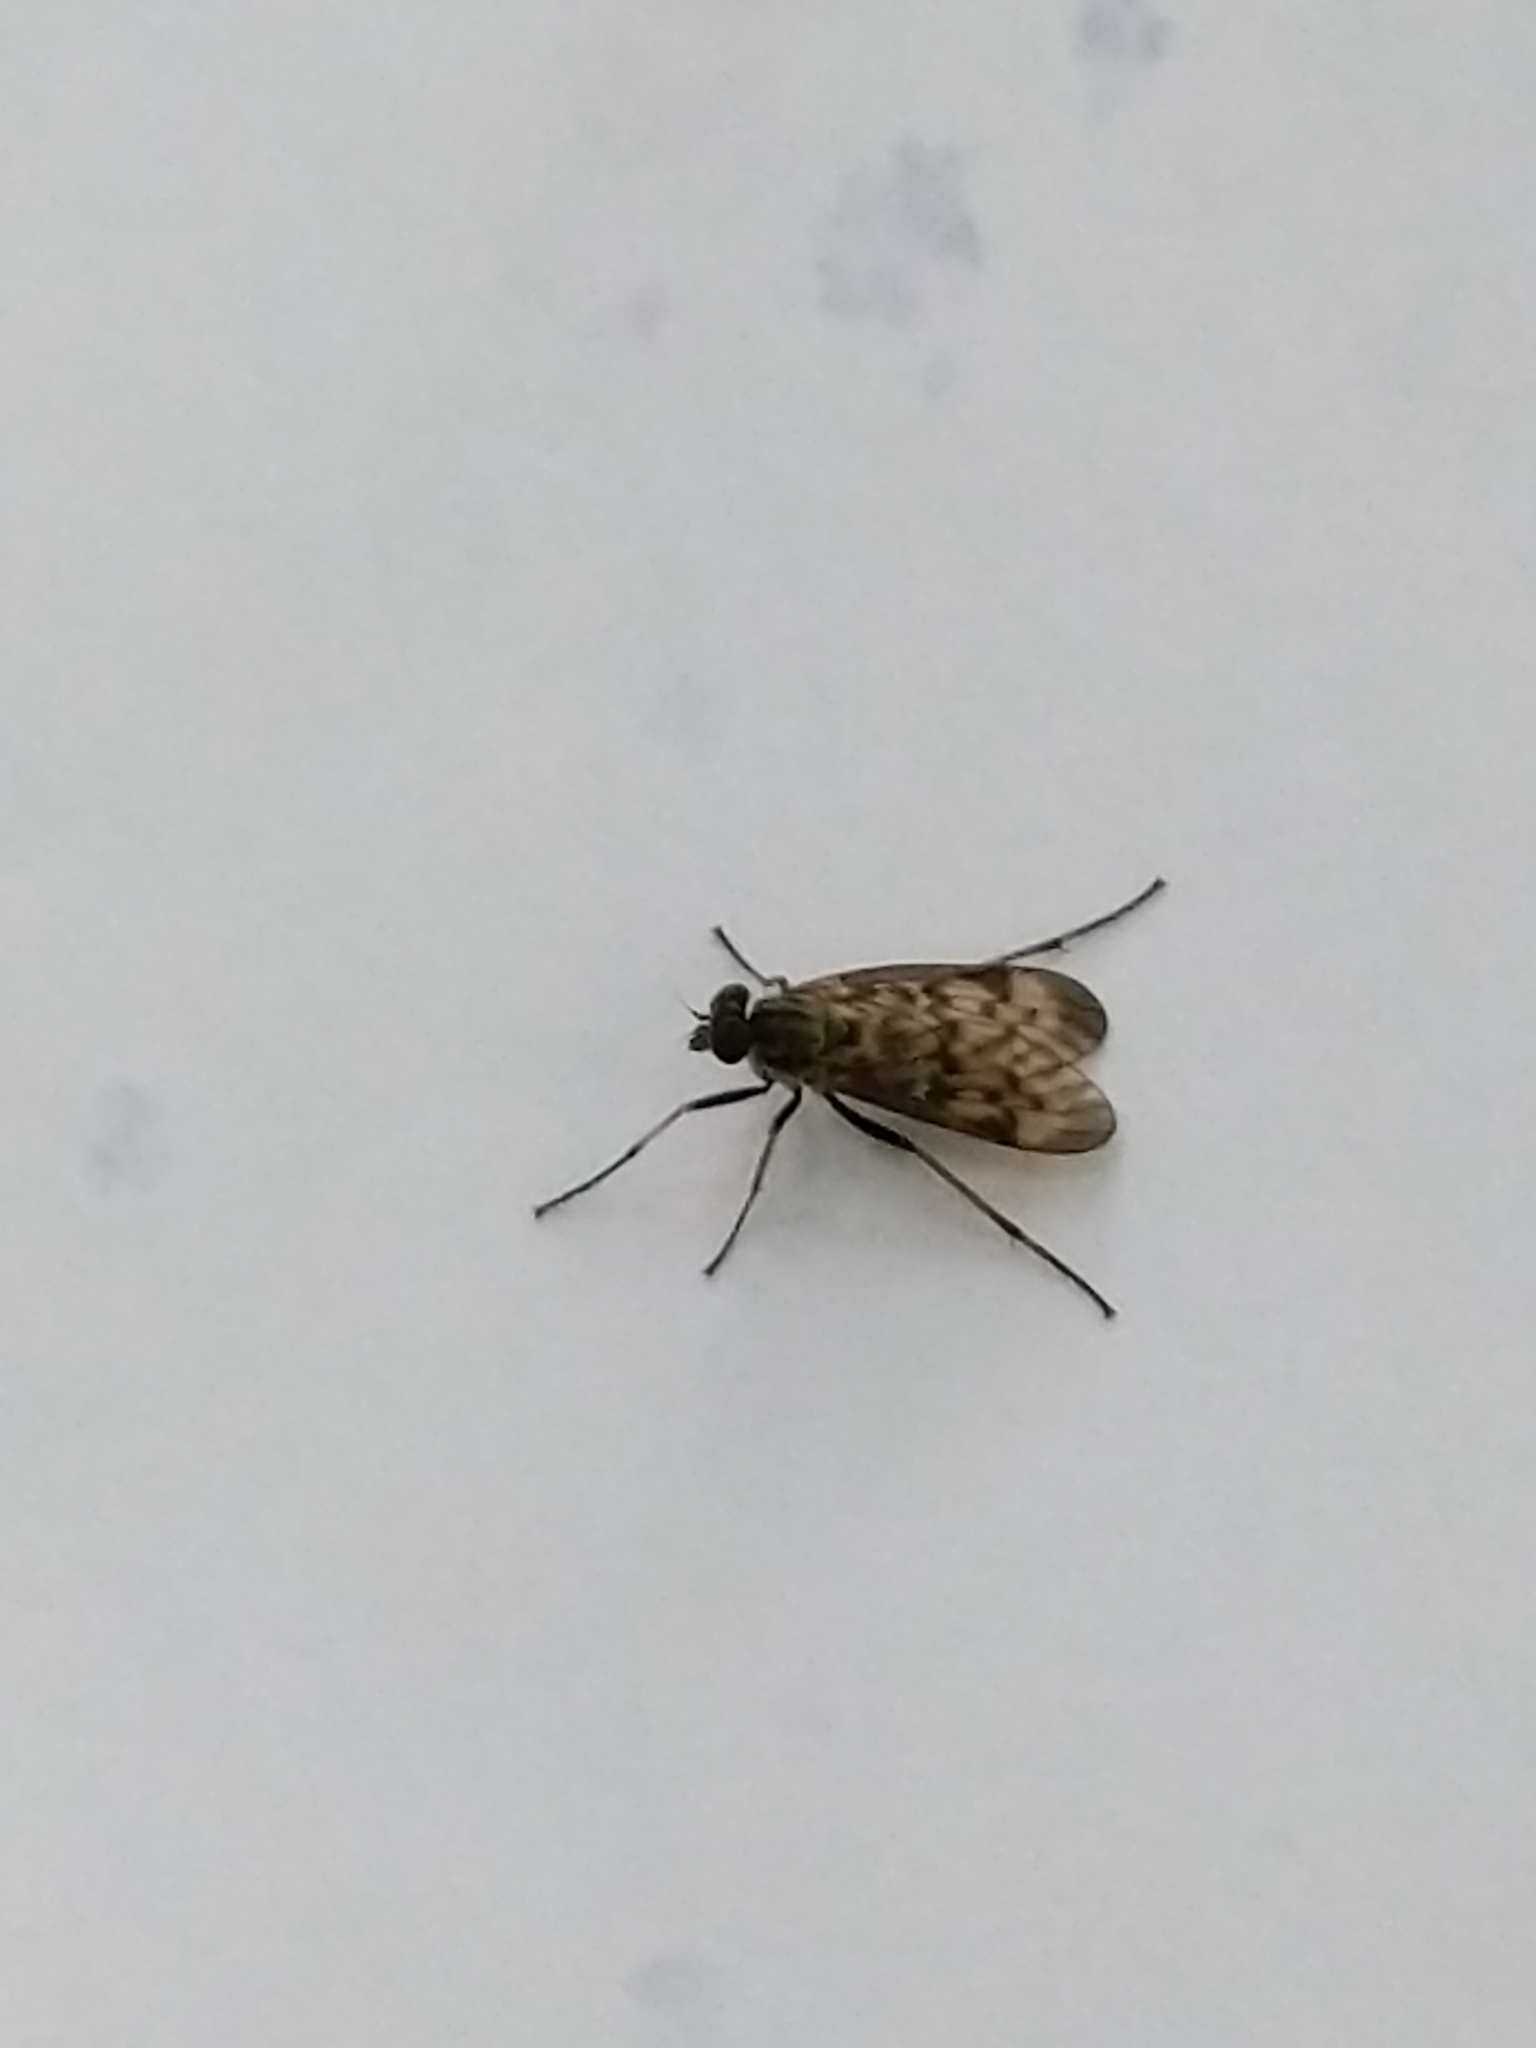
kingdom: Animalia
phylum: Arthropoda
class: Insecta
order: Diptera
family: Rhagionidae
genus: Rhagio
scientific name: Rhagio punctipennis
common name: Lesser variegated snipe fly
